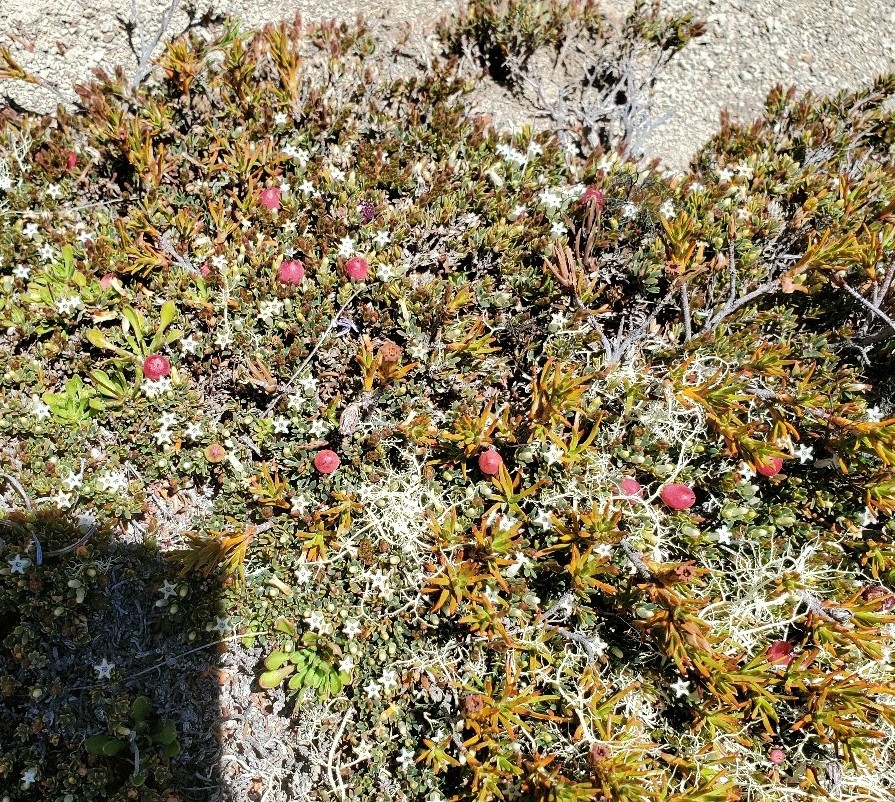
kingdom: Plantae
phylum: Tracheophyta
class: Magnoliopsida
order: Ericales
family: Ericaceae
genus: Pentachondra
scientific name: Pentachondra pumila
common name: Carpet-heath
